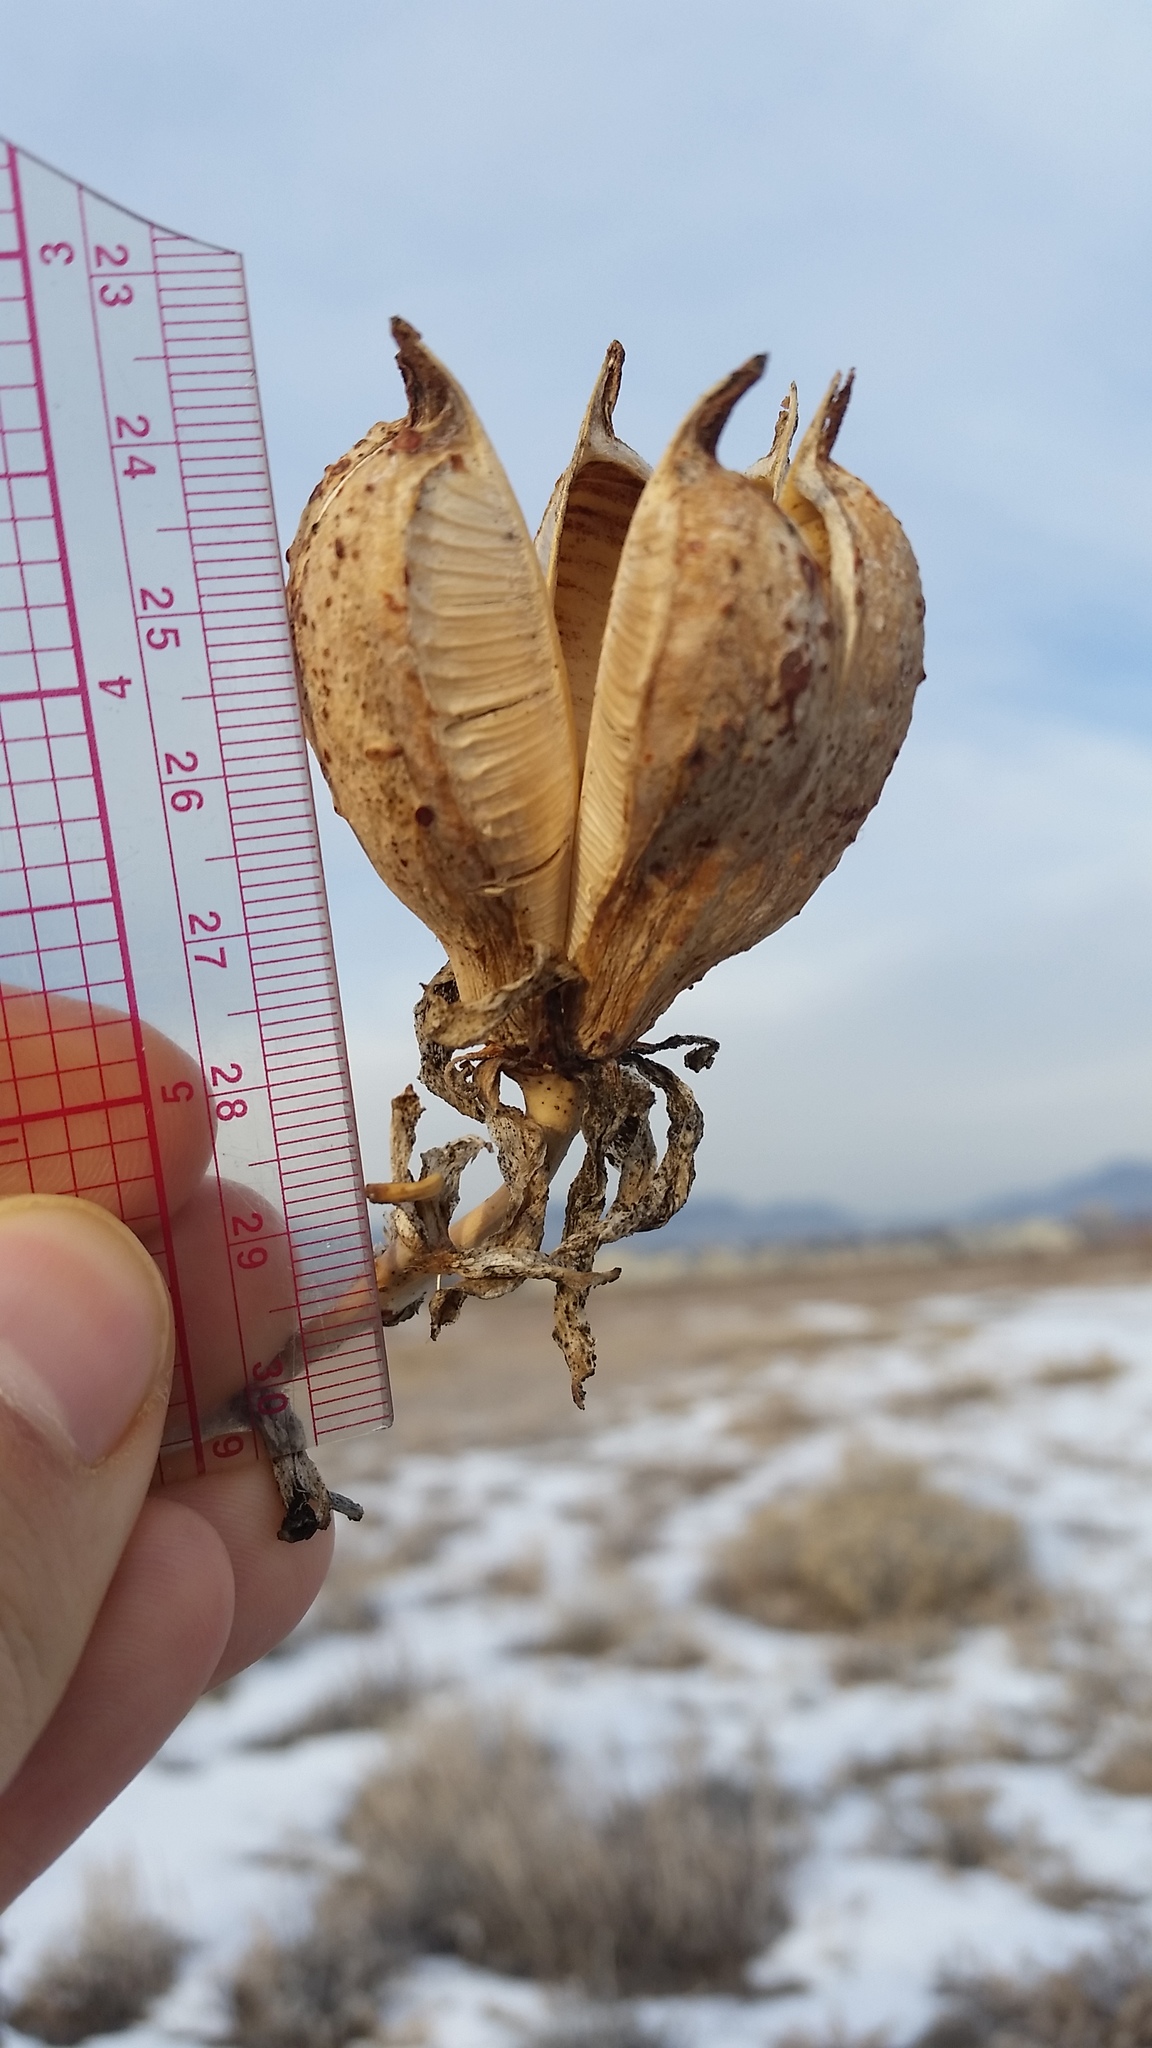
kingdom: Plantae
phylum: Tracheophyta
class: Liliopsida
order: Asparagales
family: Asparagaceae
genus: Yucca
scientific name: Yucca glauca
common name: Great plains yucca
